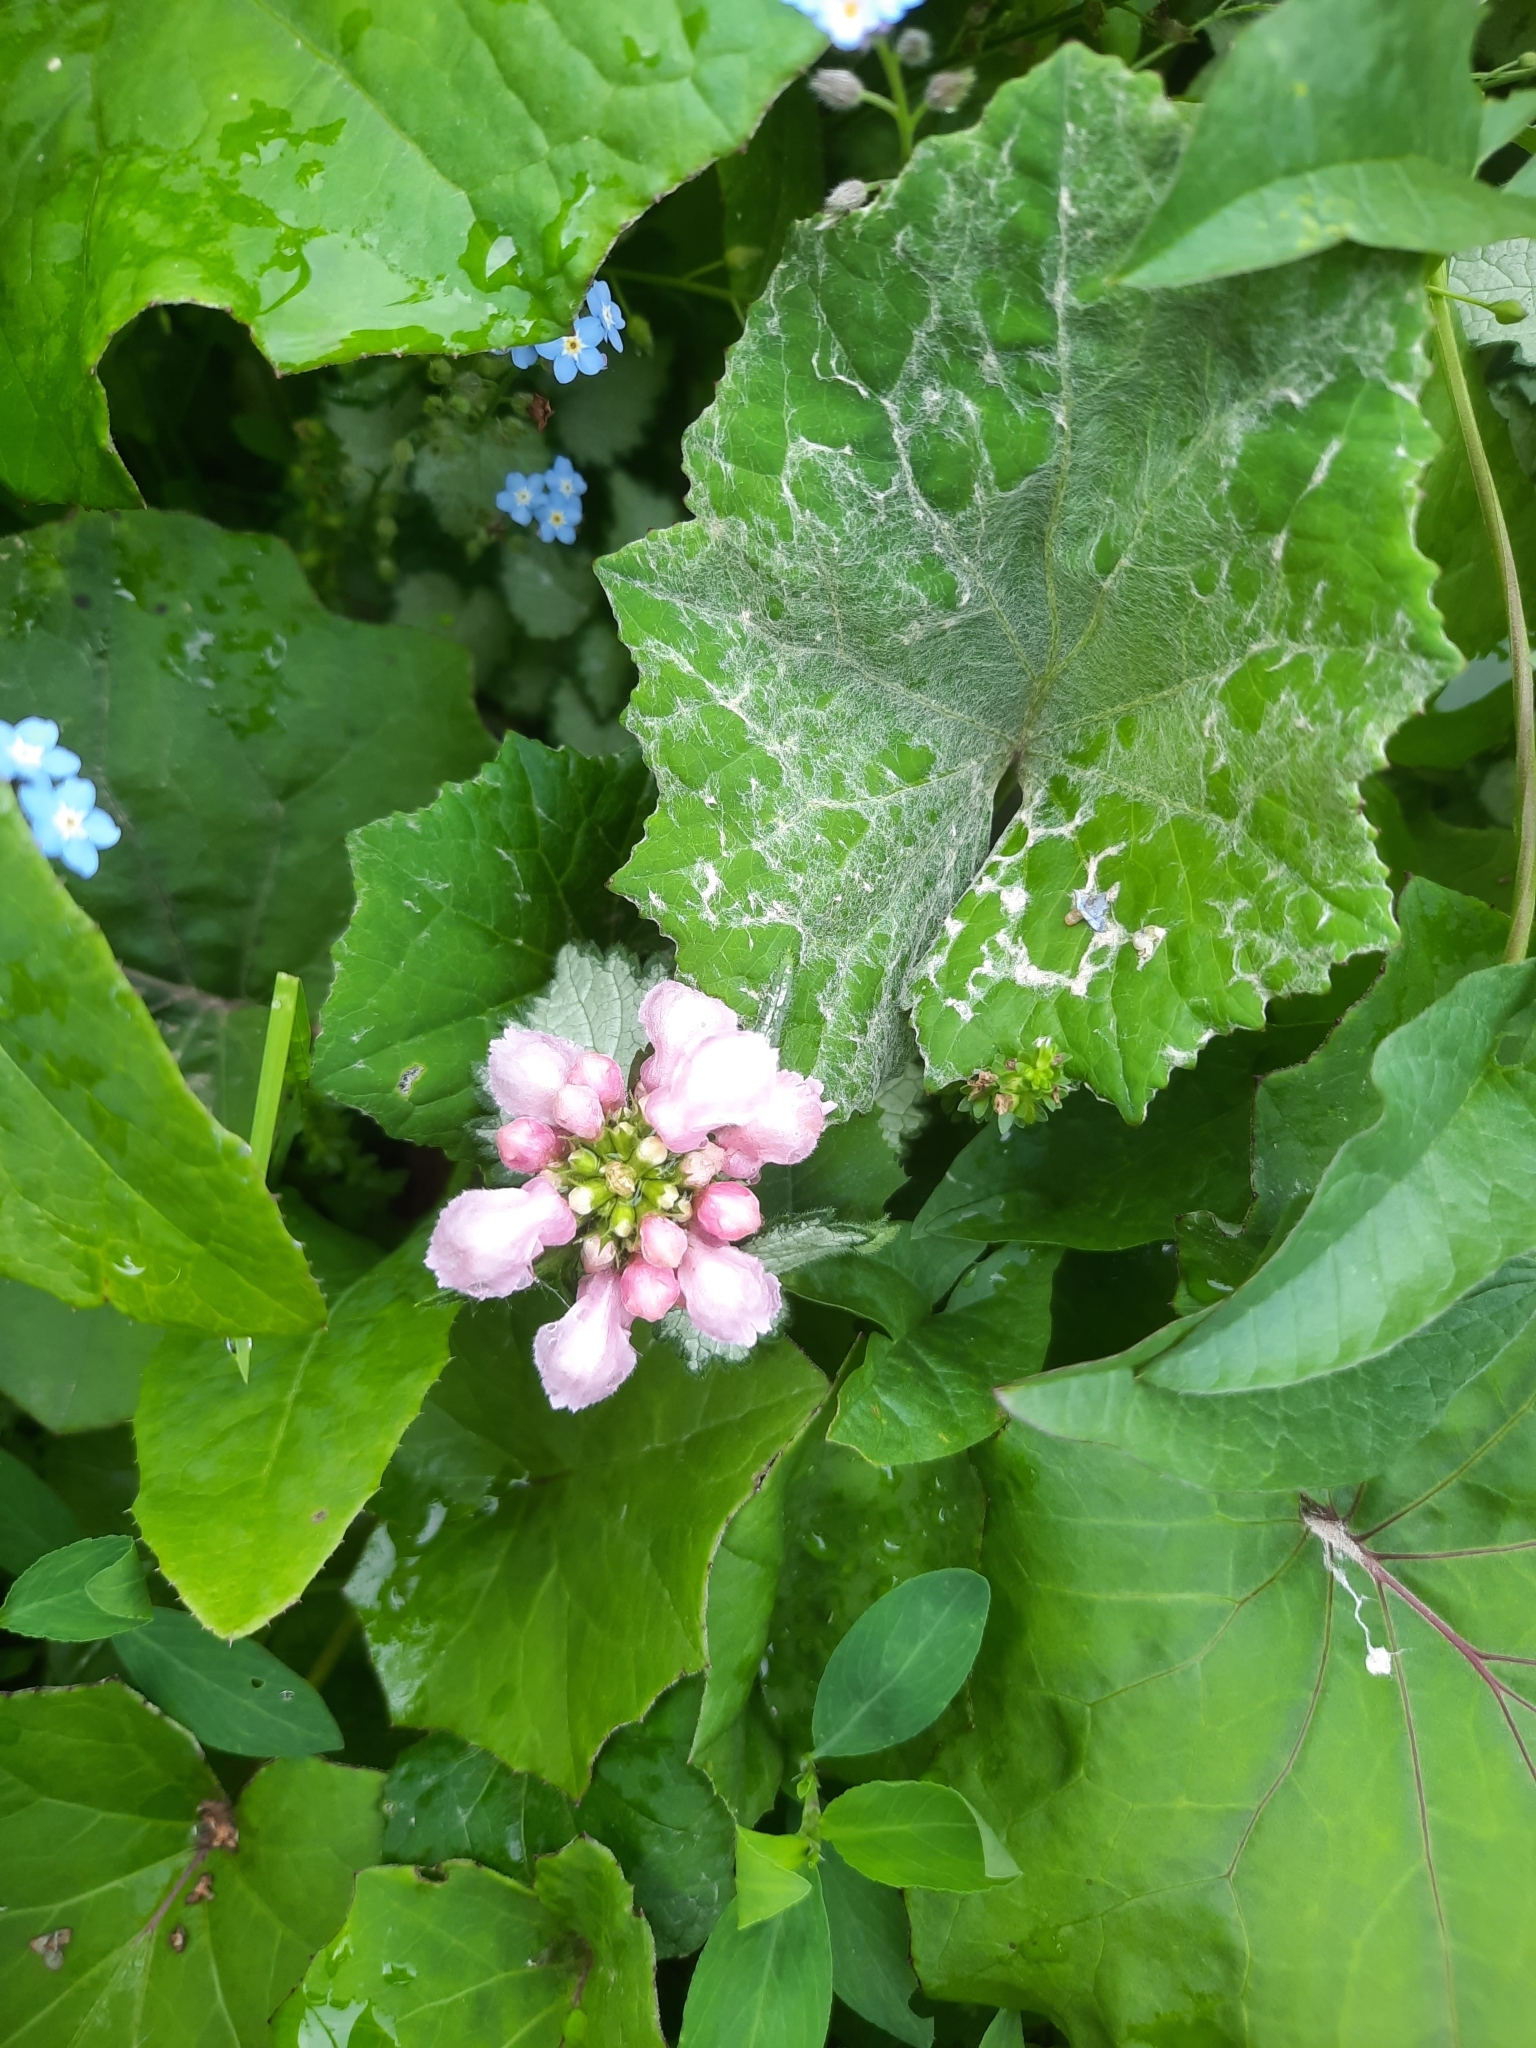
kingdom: Plantae
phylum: Tracheophyta
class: Magnoliopsida
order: Lamiales
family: Lamiaceae
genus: Lamium
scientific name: Lamium maculatum
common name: Spotted dead-nettle
